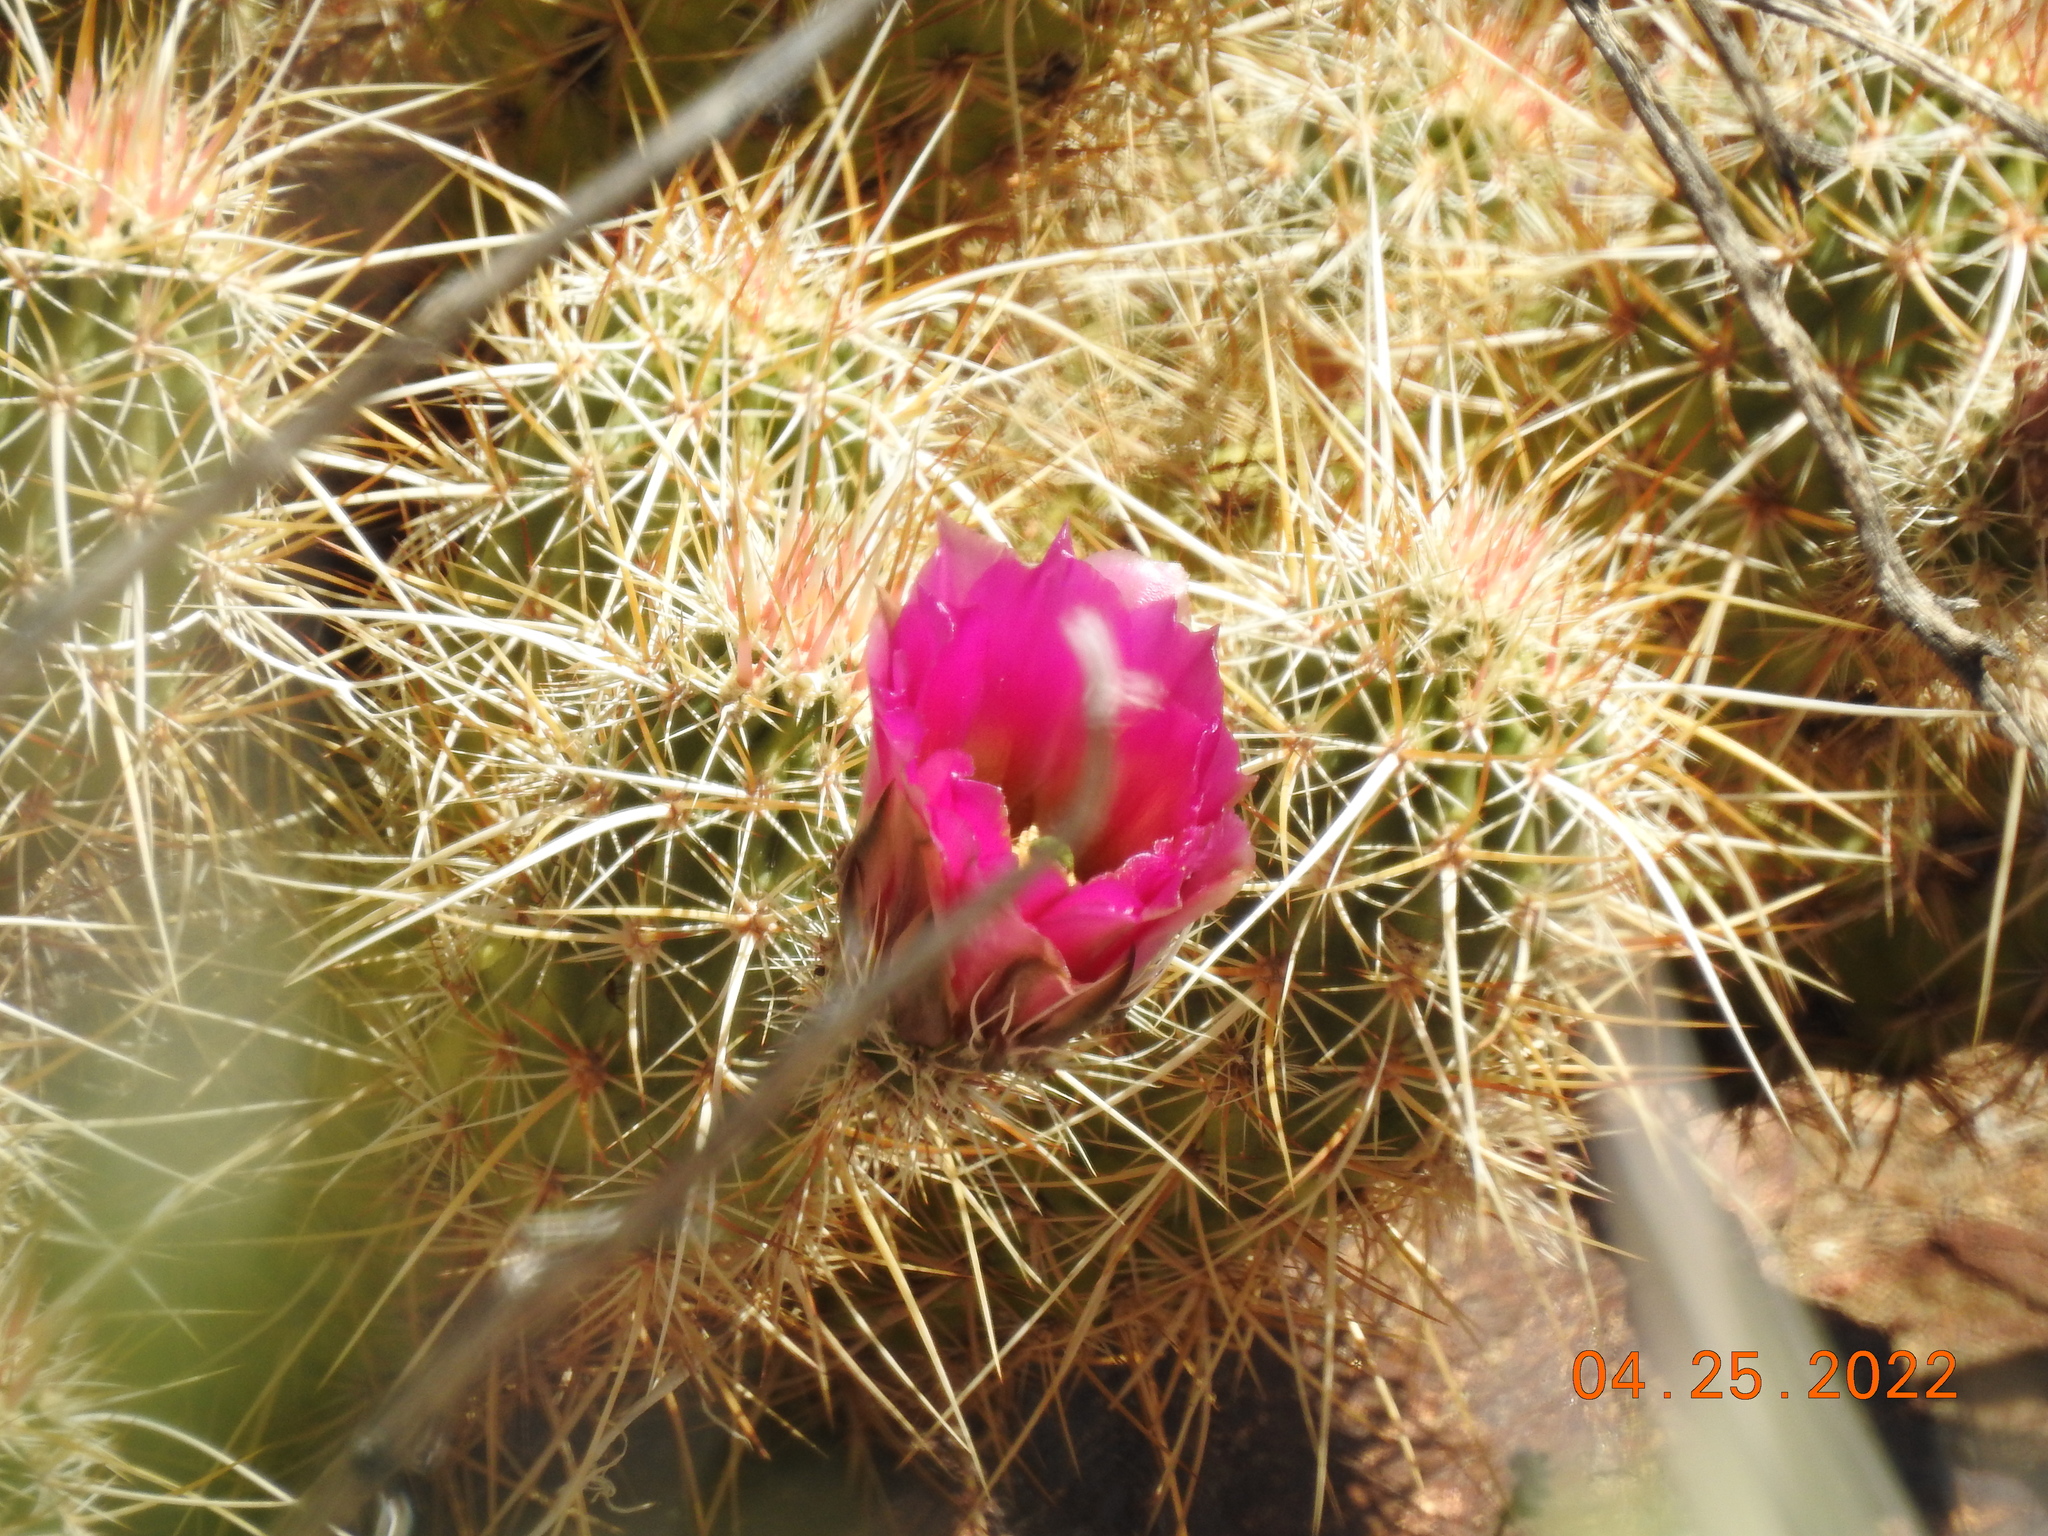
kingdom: Plantae
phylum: Tracheophyta
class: Magnoliopsida
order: Caryophyllales
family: Cactaceae
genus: Echinocereus
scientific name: Echinocereus engelmannii
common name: Engelmann's hedgehog cactus
